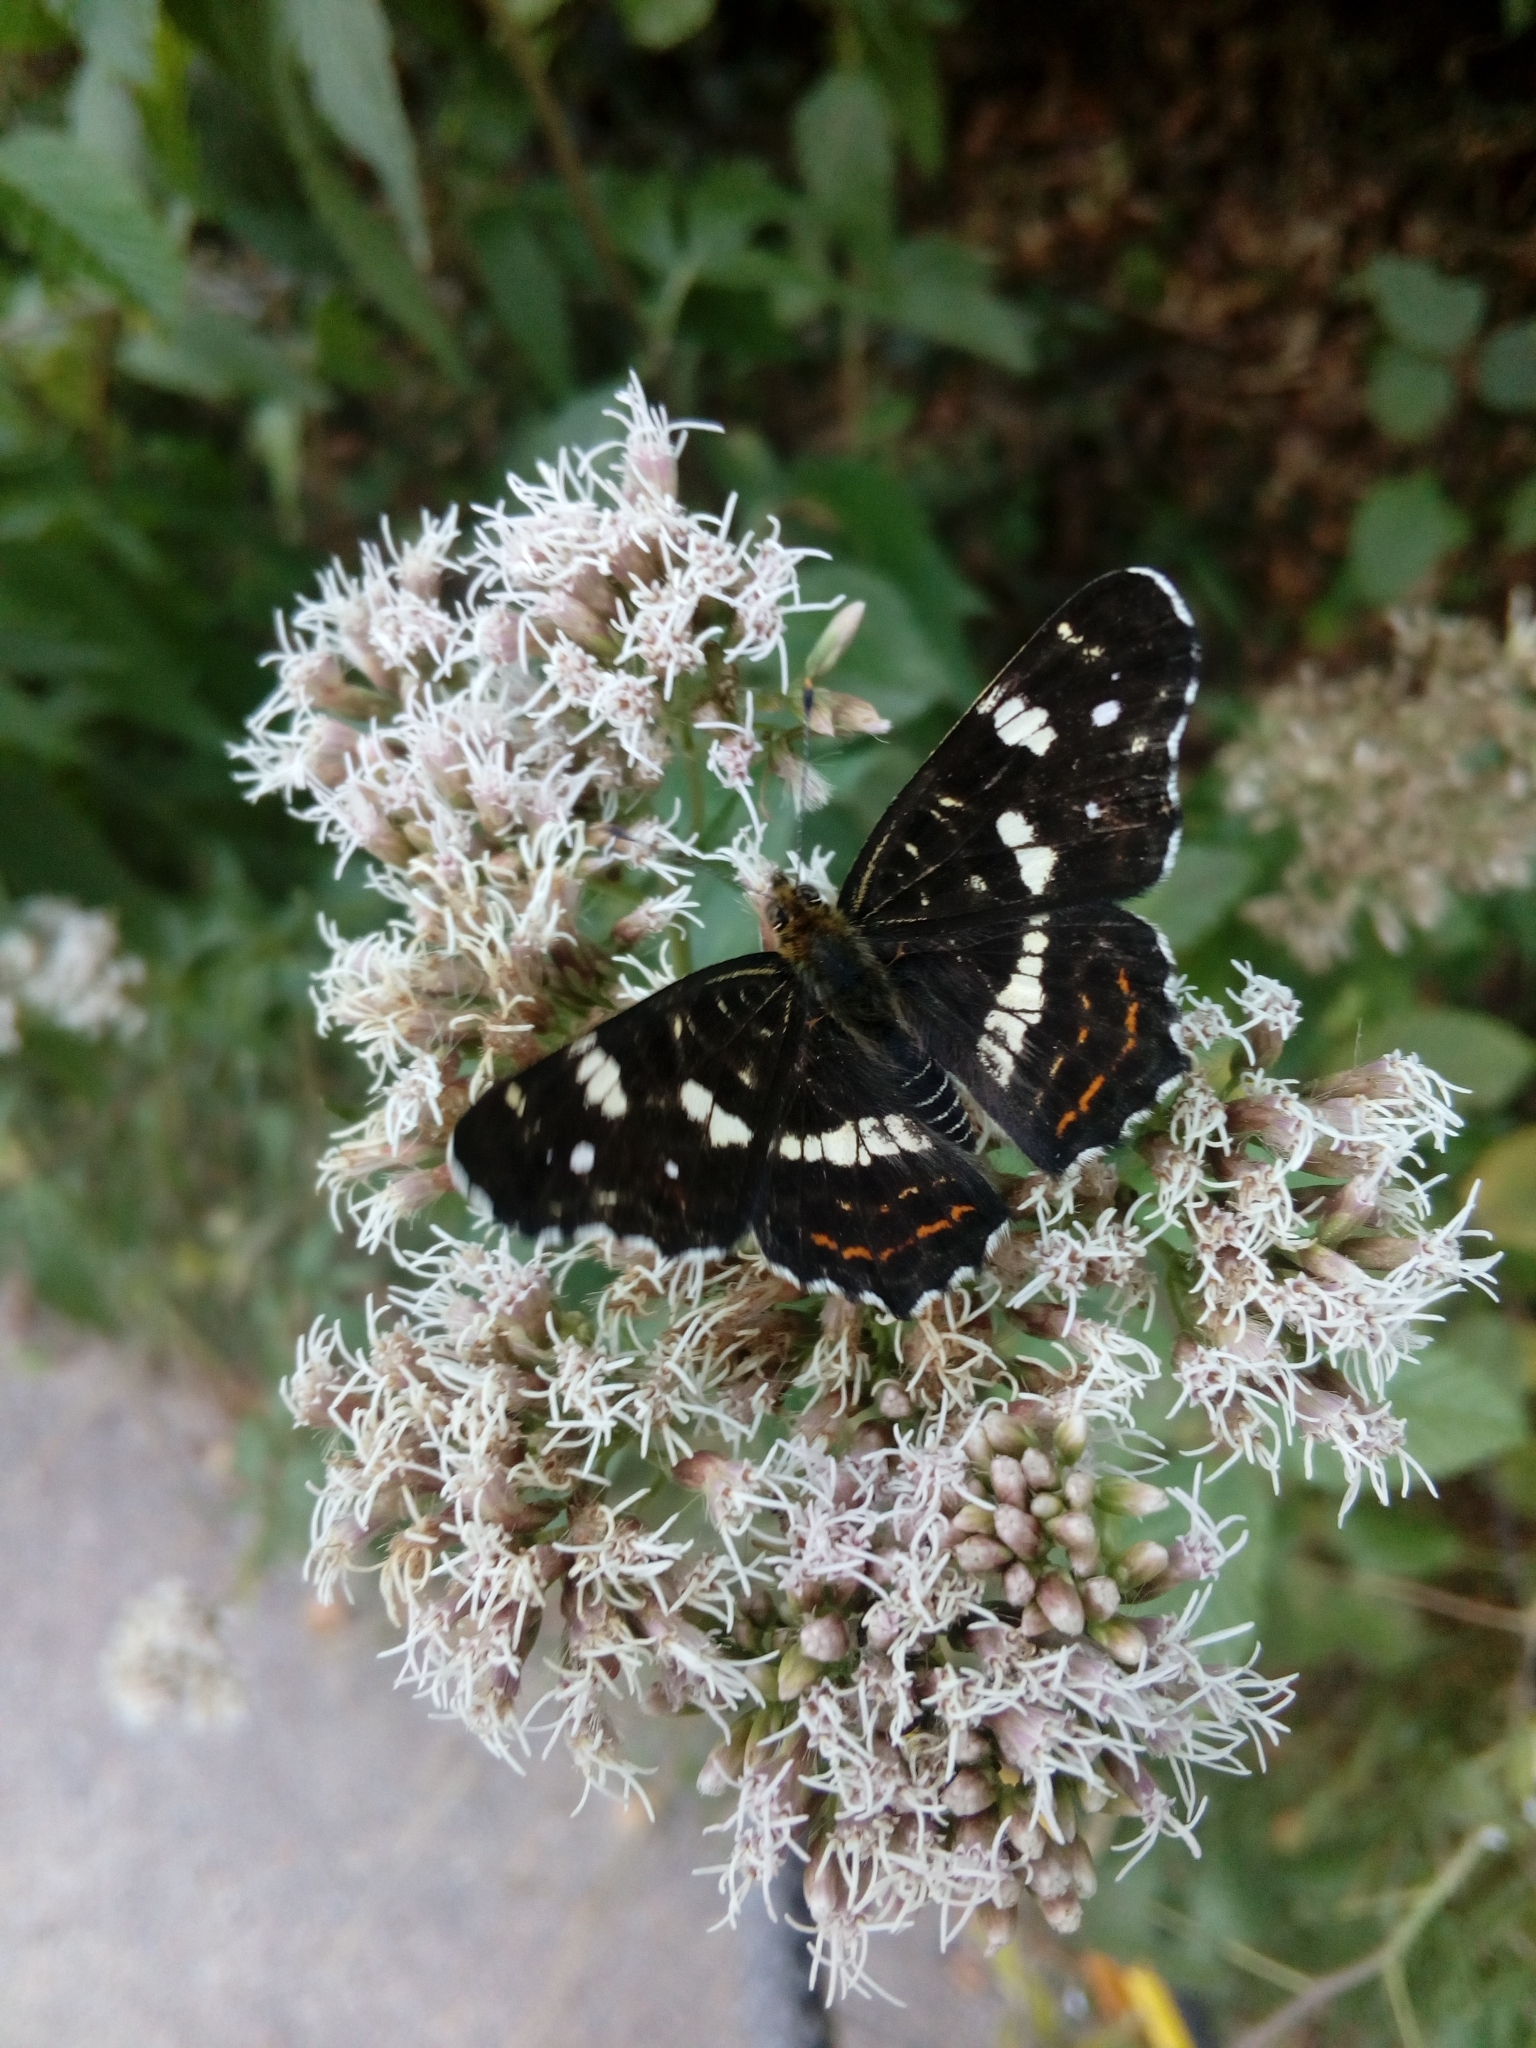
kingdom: Animalia
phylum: Arthropoda
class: Insecta
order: Lepidoptera
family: Nymphalidae
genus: Araschnia
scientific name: Araschnia levana
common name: Map butterfly
